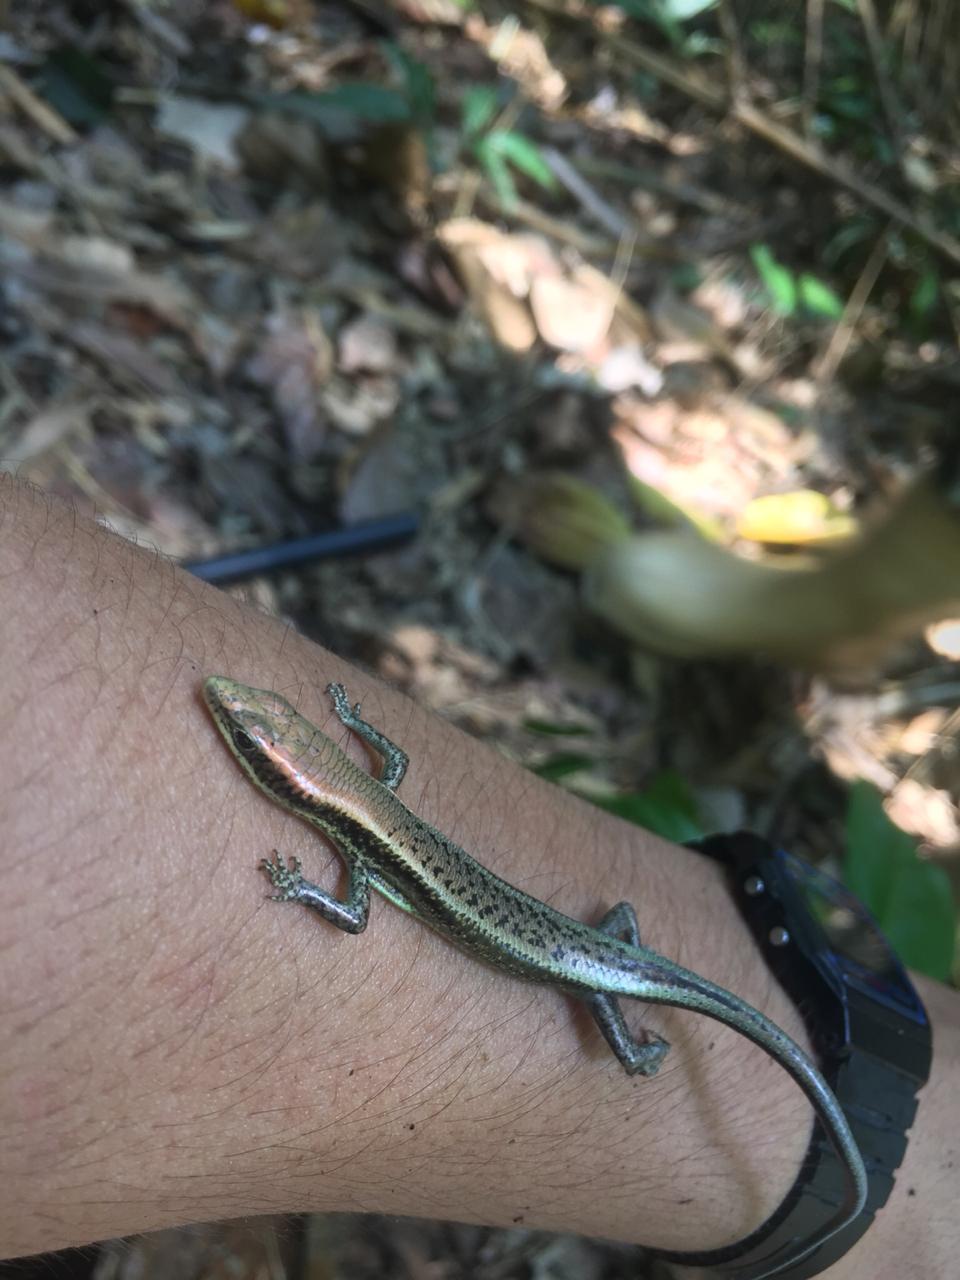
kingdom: Animalia
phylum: Chordata
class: Squamata
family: Scincidae
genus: Exila
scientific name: Exila nigropalmata
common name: Black mabuya
